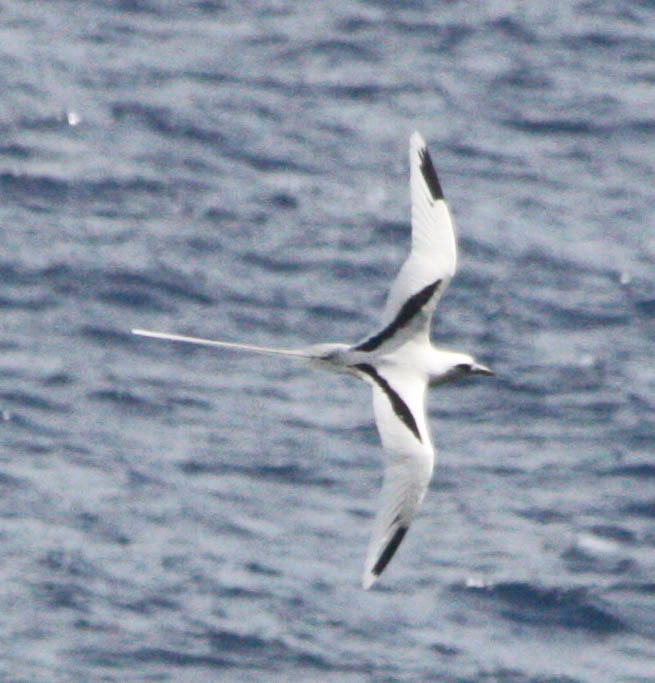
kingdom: Animalia
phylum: Chordata
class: Aves
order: Phaethontiformes
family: Phaethontidae
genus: Phaethon
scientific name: Phaethon lepturus
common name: White-tailed tropicbird
